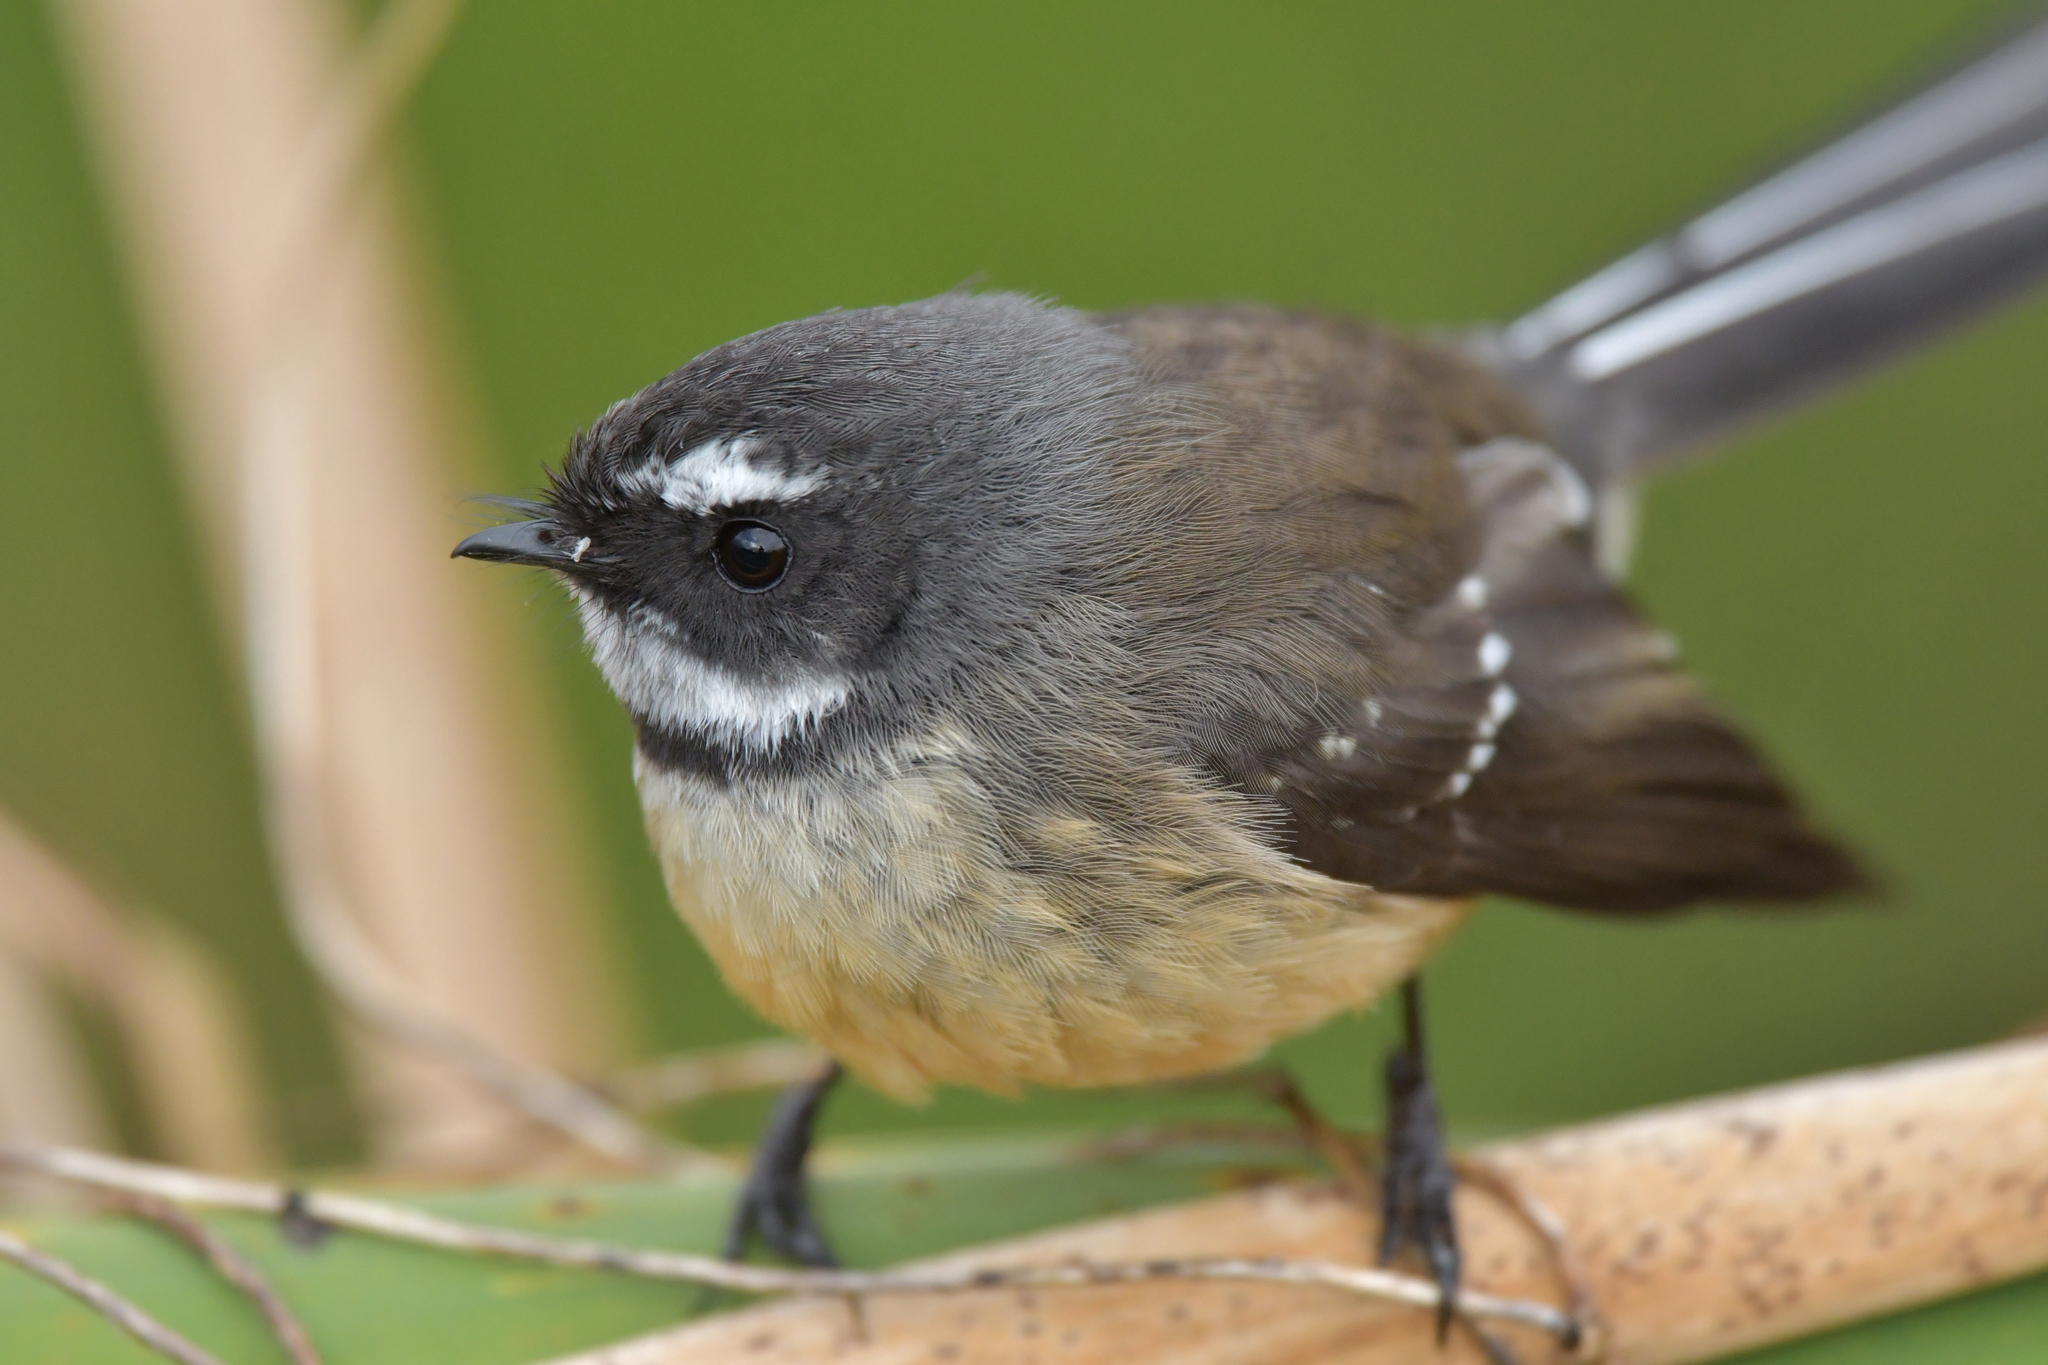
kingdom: Animalia
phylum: Chordata
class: Aves
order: Passeriformes
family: Rhipiduridae
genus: Rhipidura
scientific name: Rhipidura fuliginosa
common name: New zealand fantail
